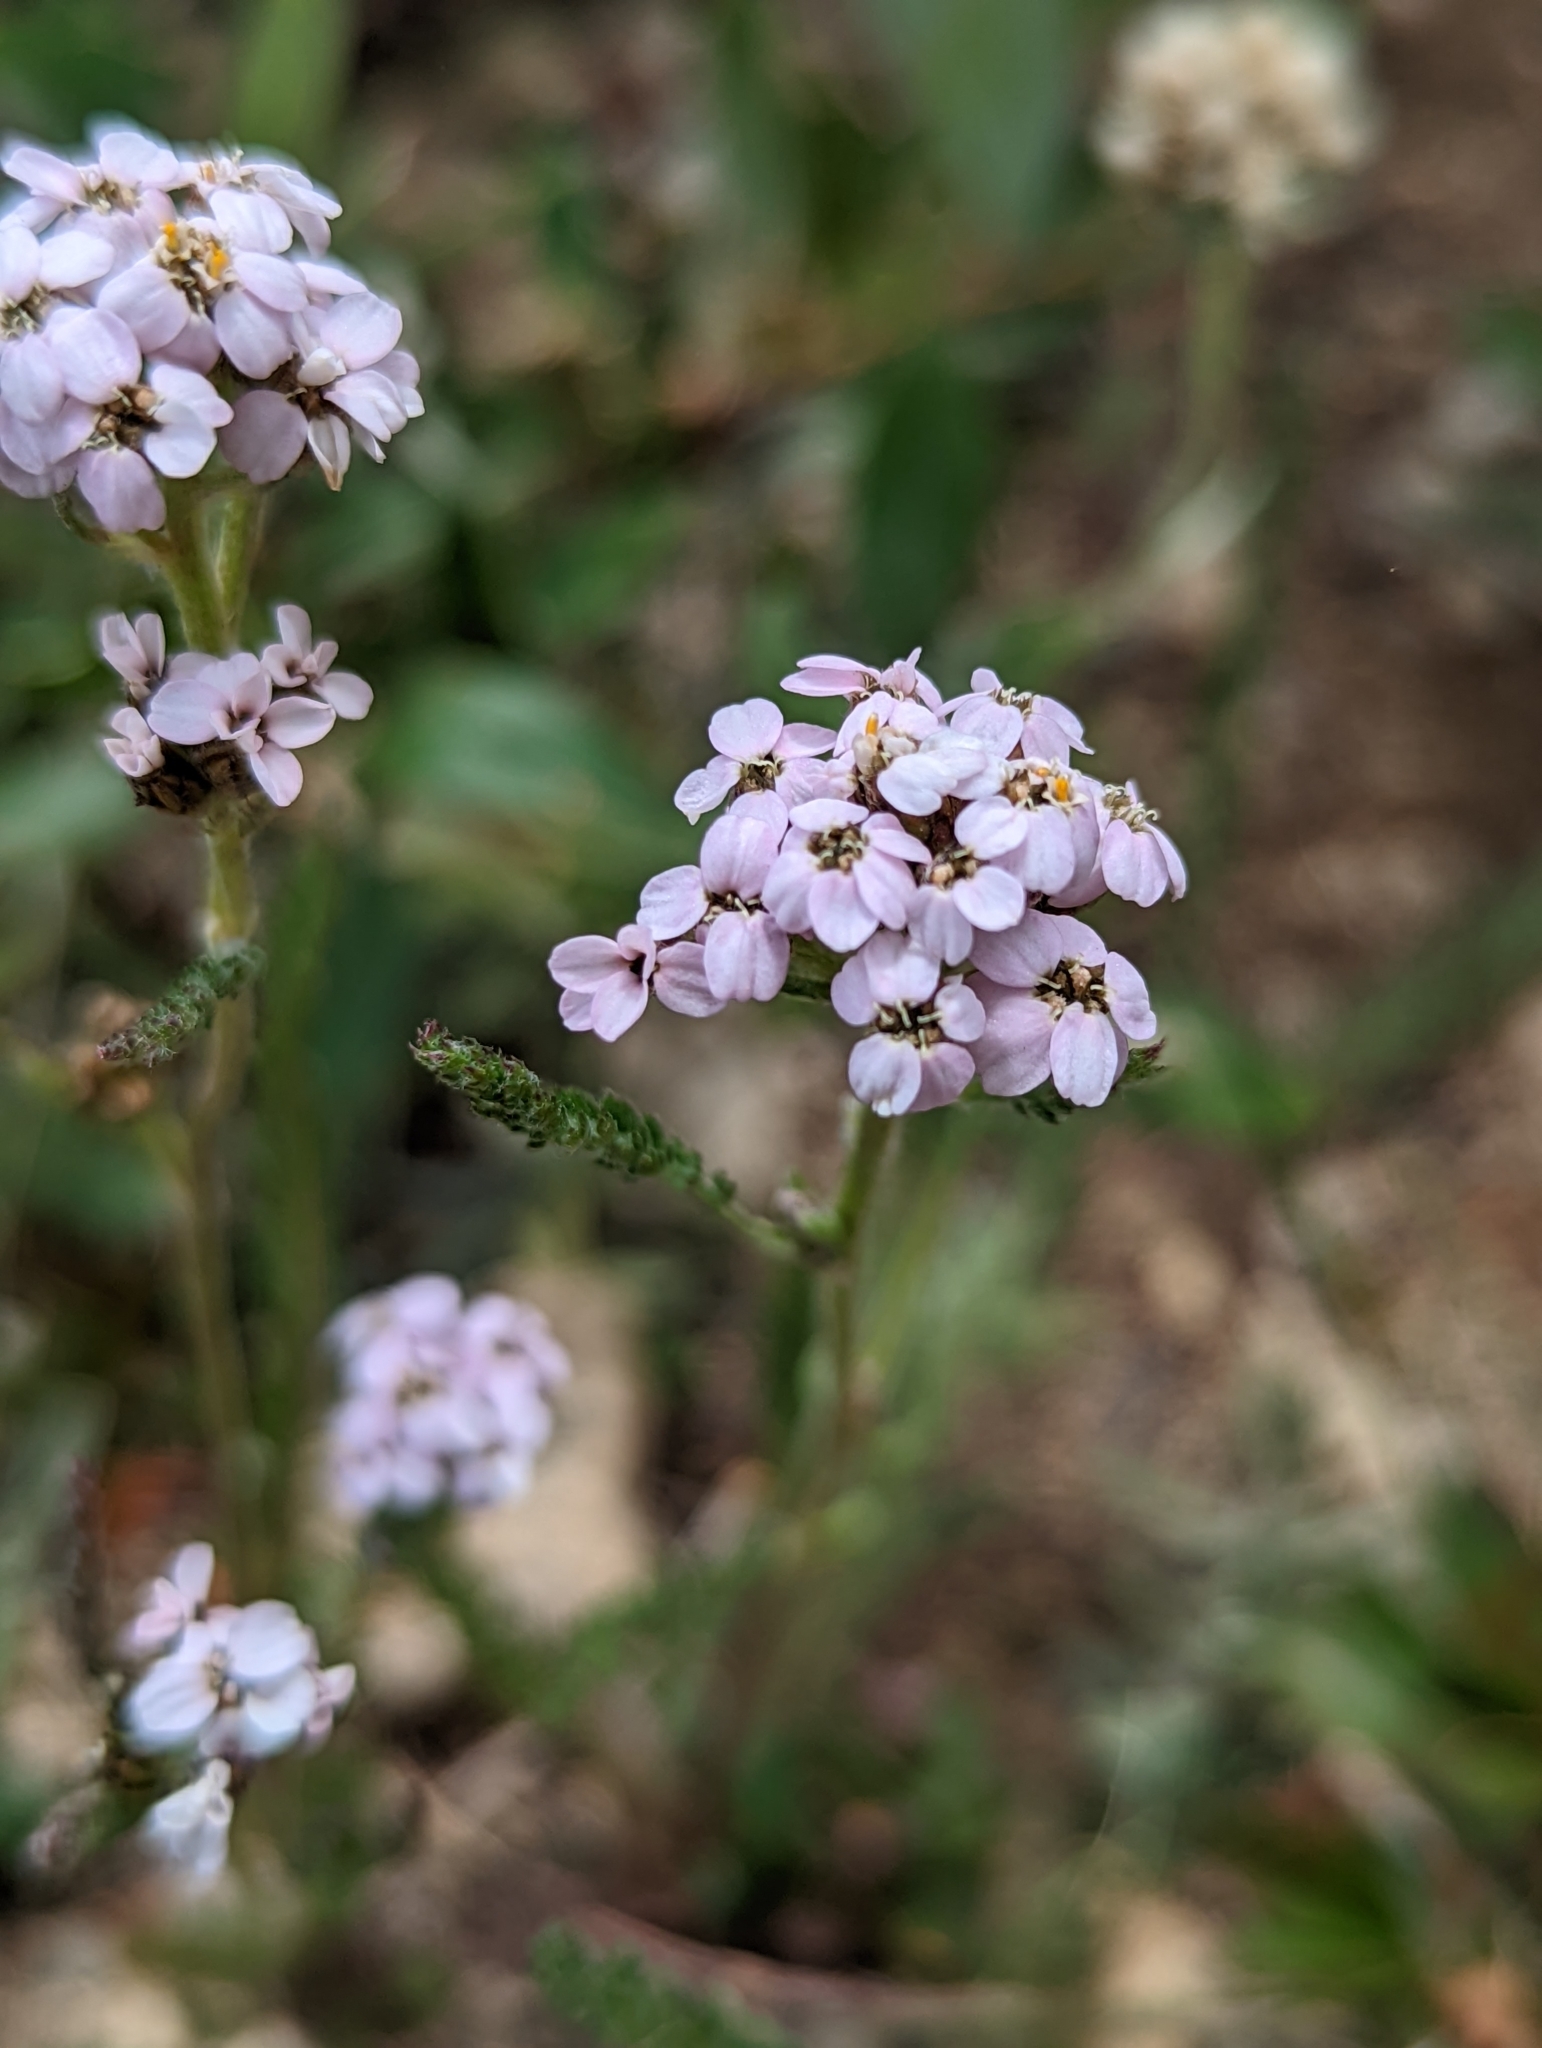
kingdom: Plantae
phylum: Tracheophyta
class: Magnoliopsida
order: Asterales
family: Asteraceae
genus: Achillea
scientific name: Achillea millefolium
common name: Yarrow
